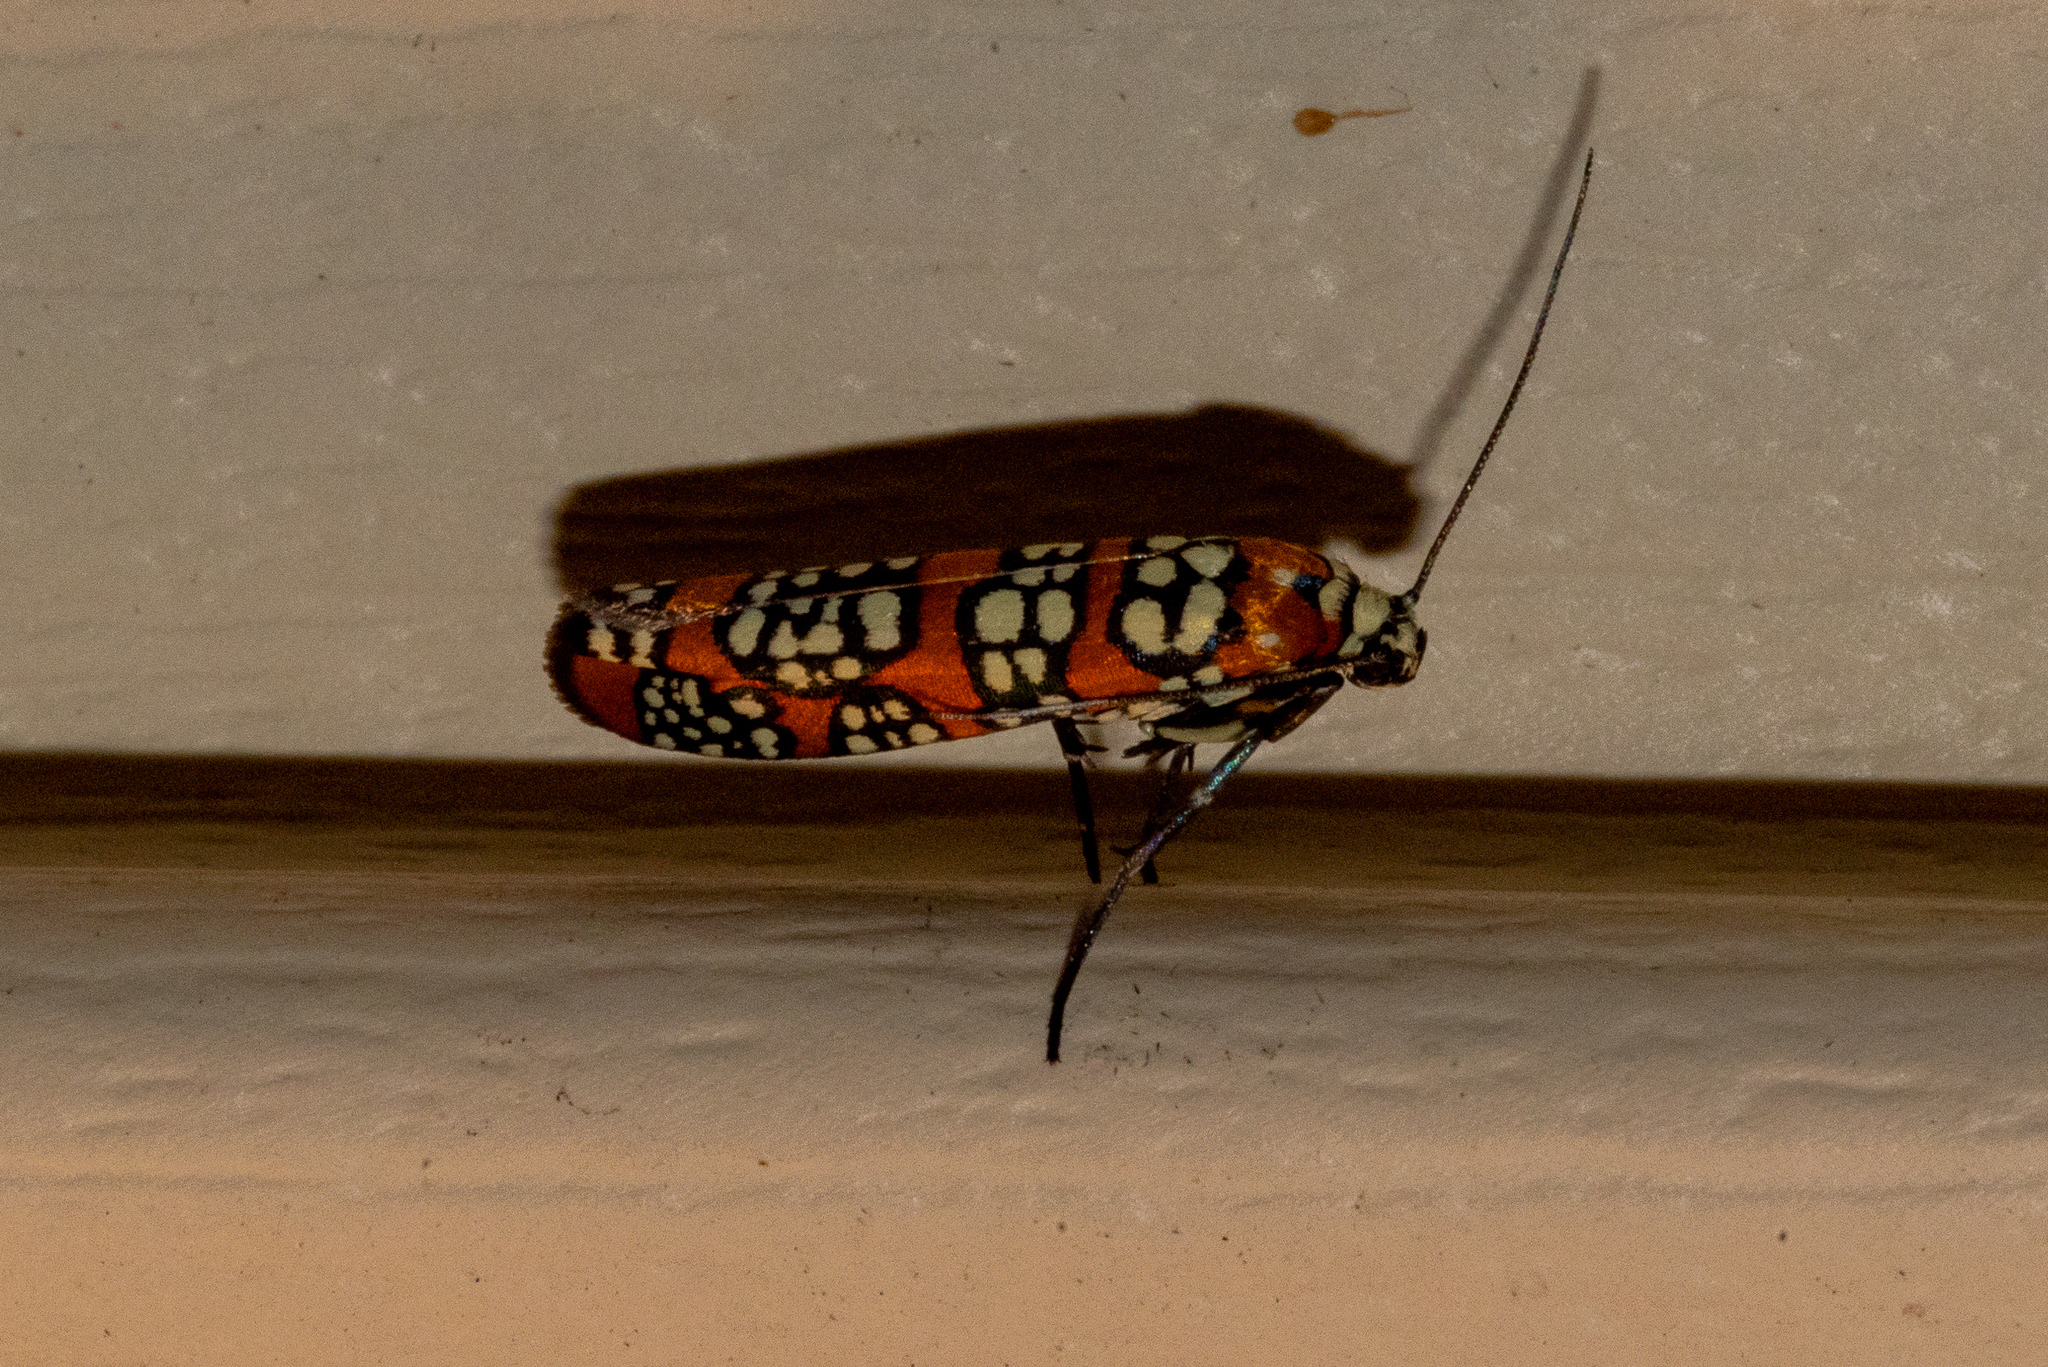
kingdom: Animalia
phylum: Arthropoda
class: Insecta
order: Lepidoptera
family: Attevidae
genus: Atteva
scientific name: Atteva punctella
